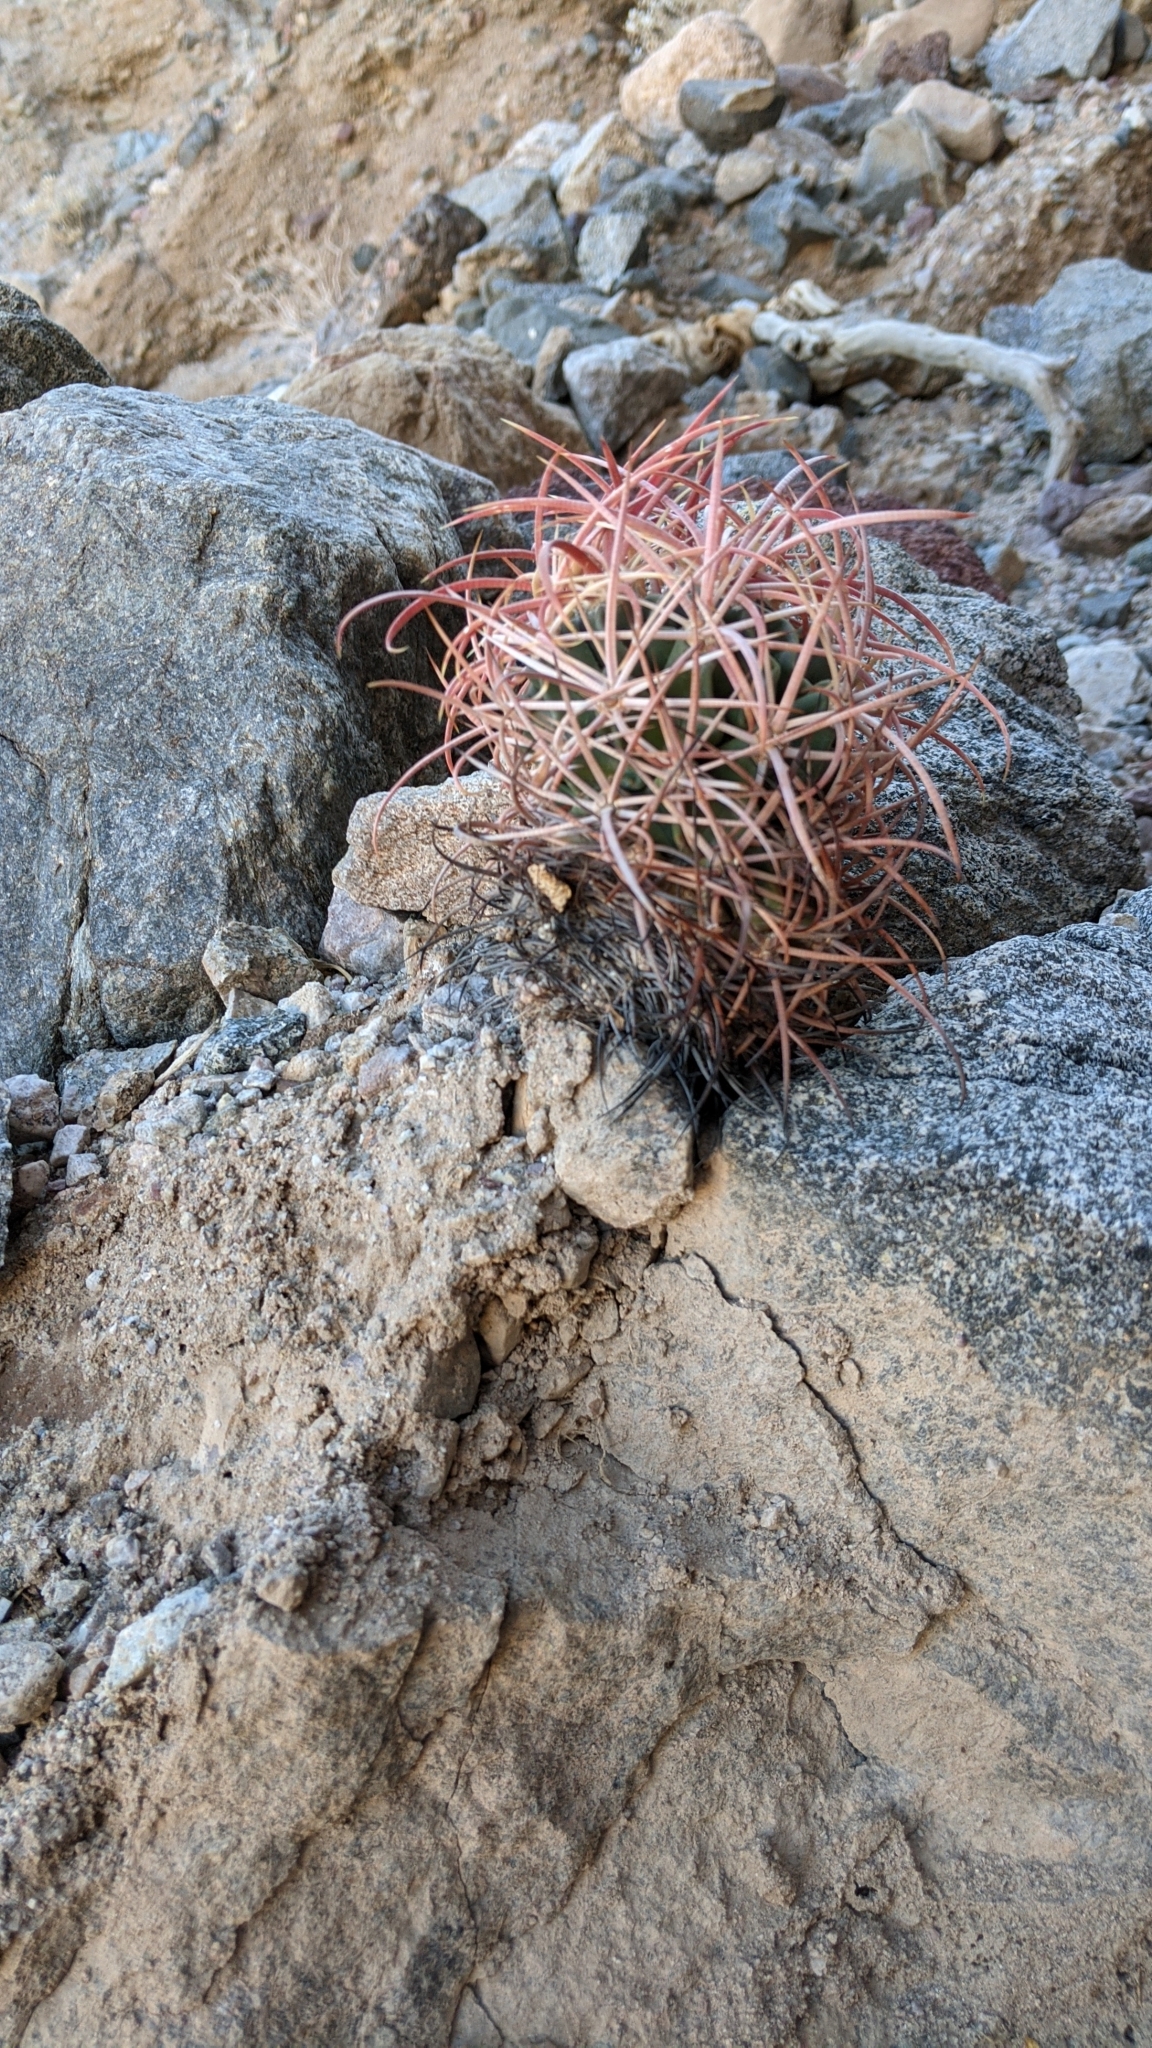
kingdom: Plantae
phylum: Tracheophyta
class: Magnoliopsida
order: Caryophyllales
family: Cactaceae
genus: Echinocactus
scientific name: Echinocactus polycephalus
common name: Cottontop cactus
